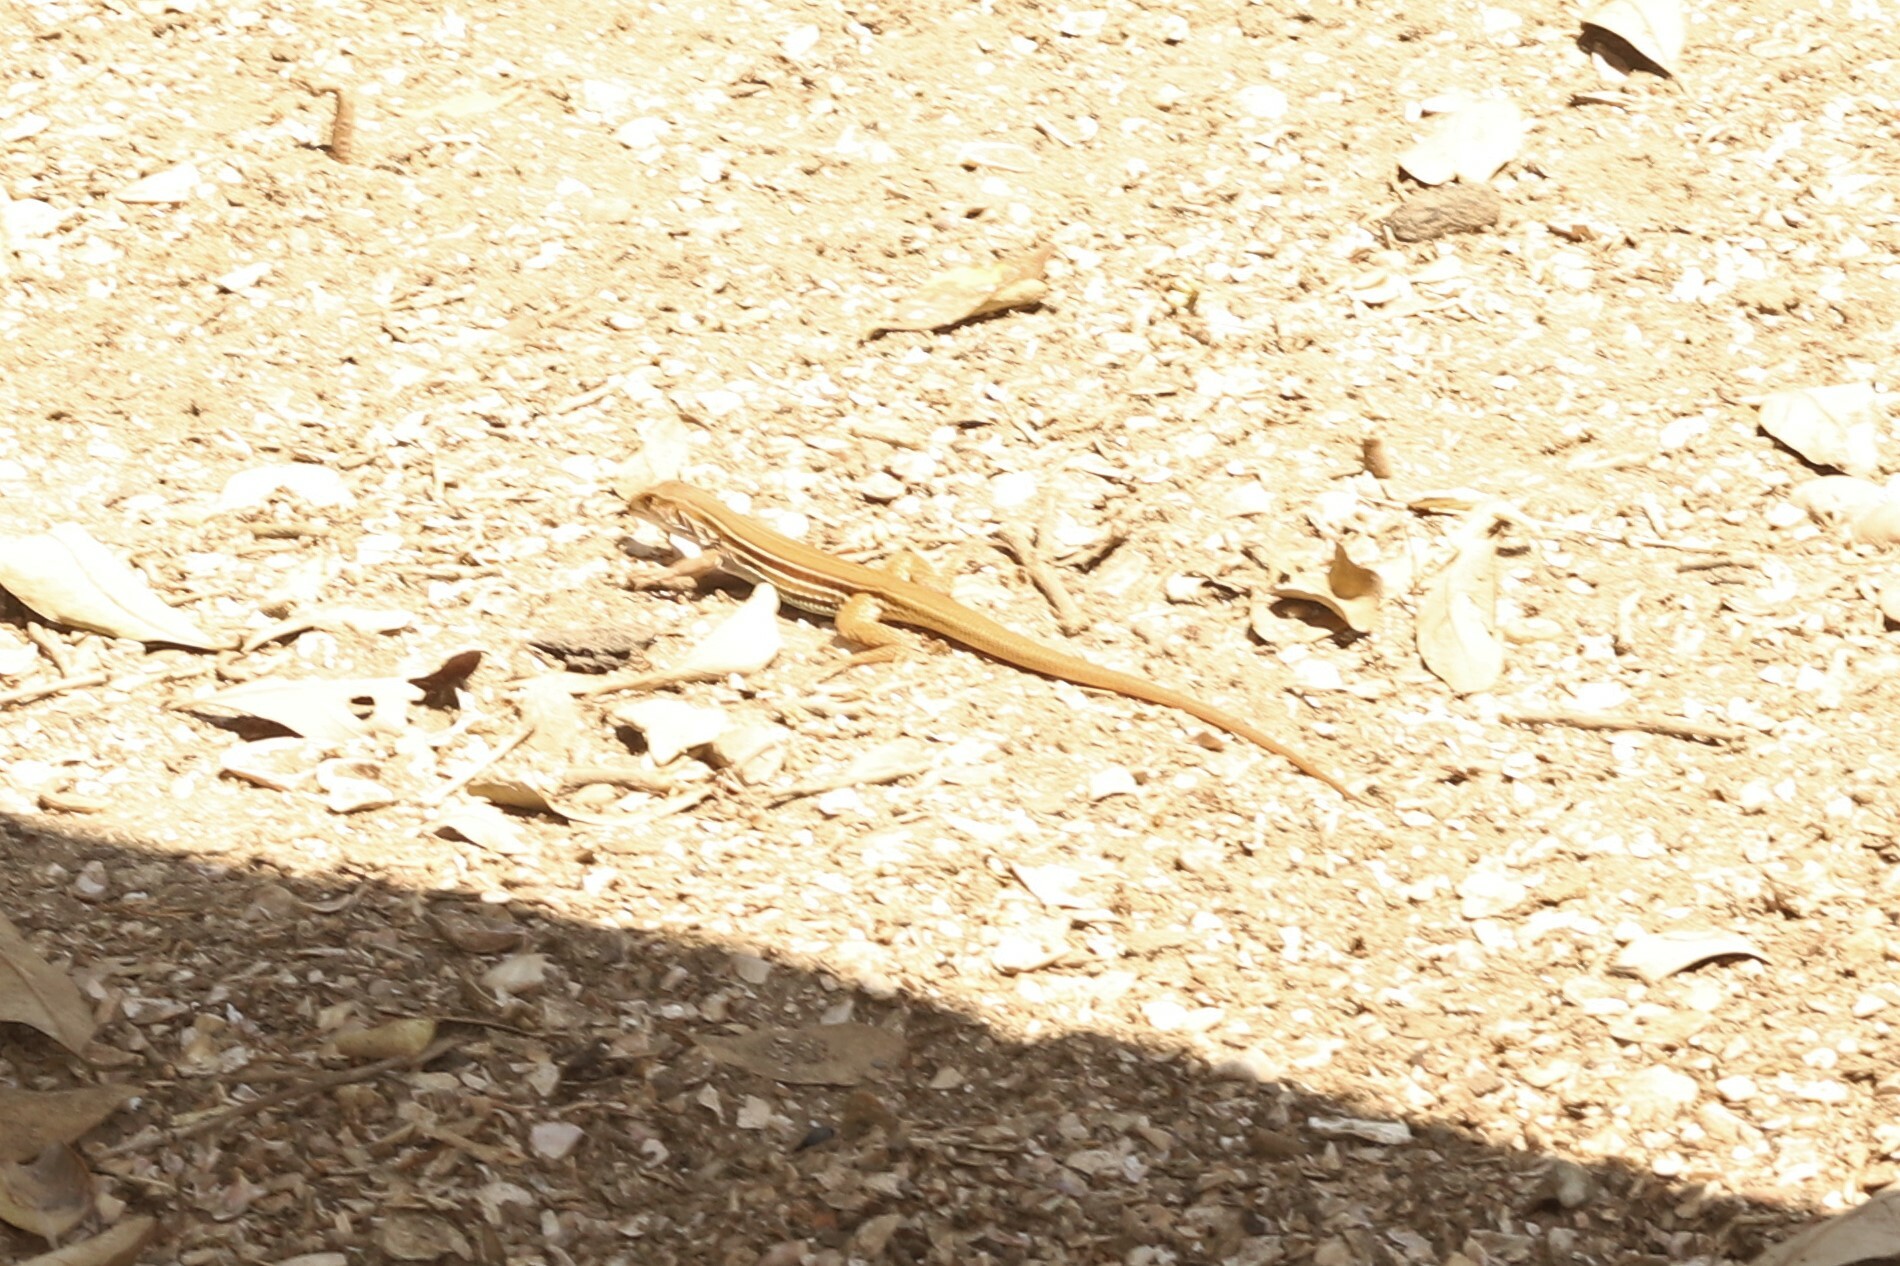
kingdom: Animalia
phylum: Chordata
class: Squamata
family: Teiidae
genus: Ameiva
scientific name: Ameiva bifrontata
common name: Cope's ameiva
